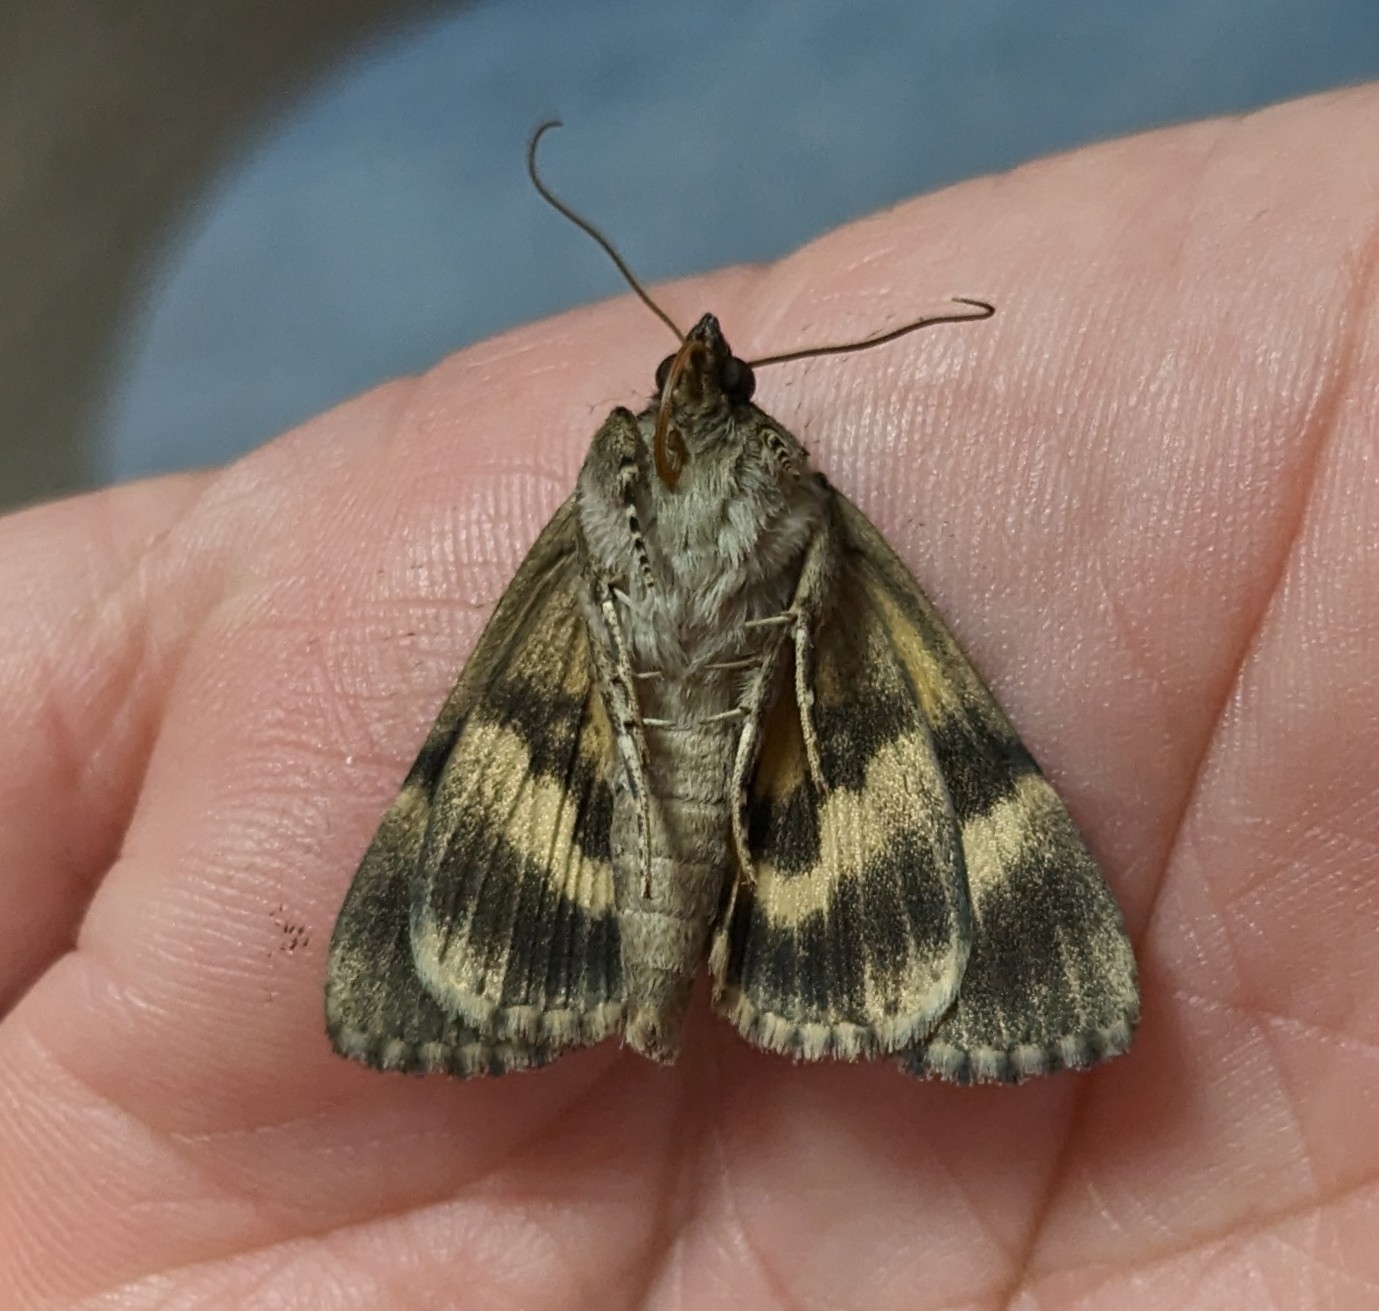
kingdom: Animalia
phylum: Arthropoda
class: Insecta
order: Lepidoptera
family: Erebidae
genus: Catocala
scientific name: Catocala minuta
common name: Little underwing
